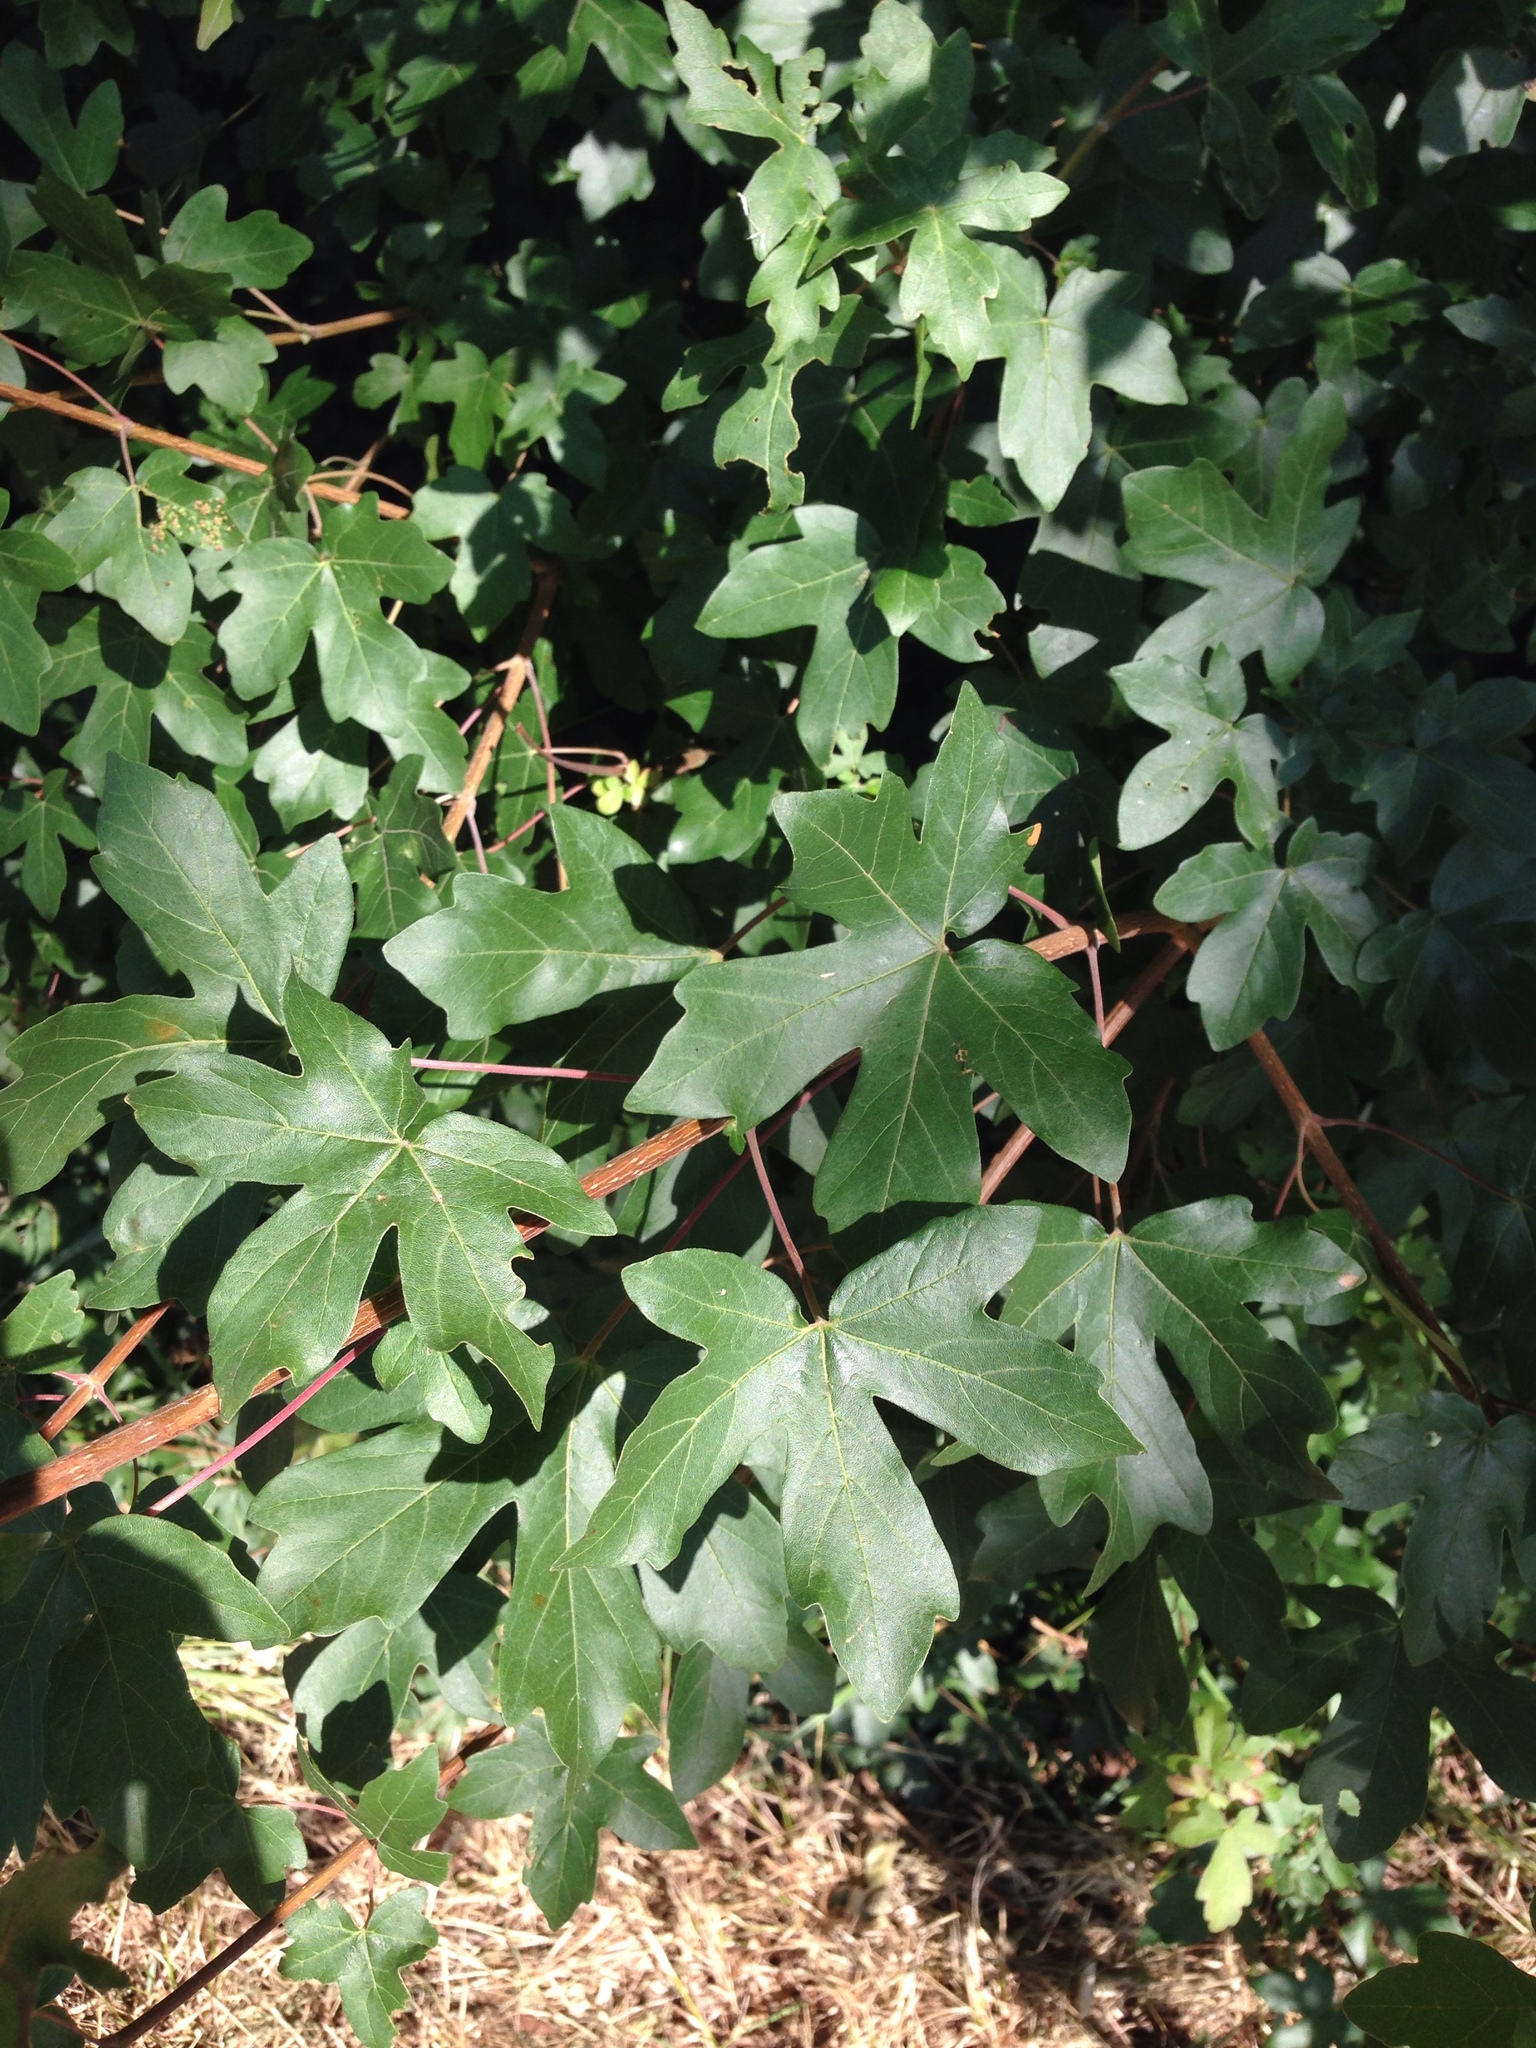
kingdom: Plantae
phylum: Tracheophyta
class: Magnoliopsida
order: Sapindales
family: Sapindaceae
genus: Acer
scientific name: Acer campestre
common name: Field maple
